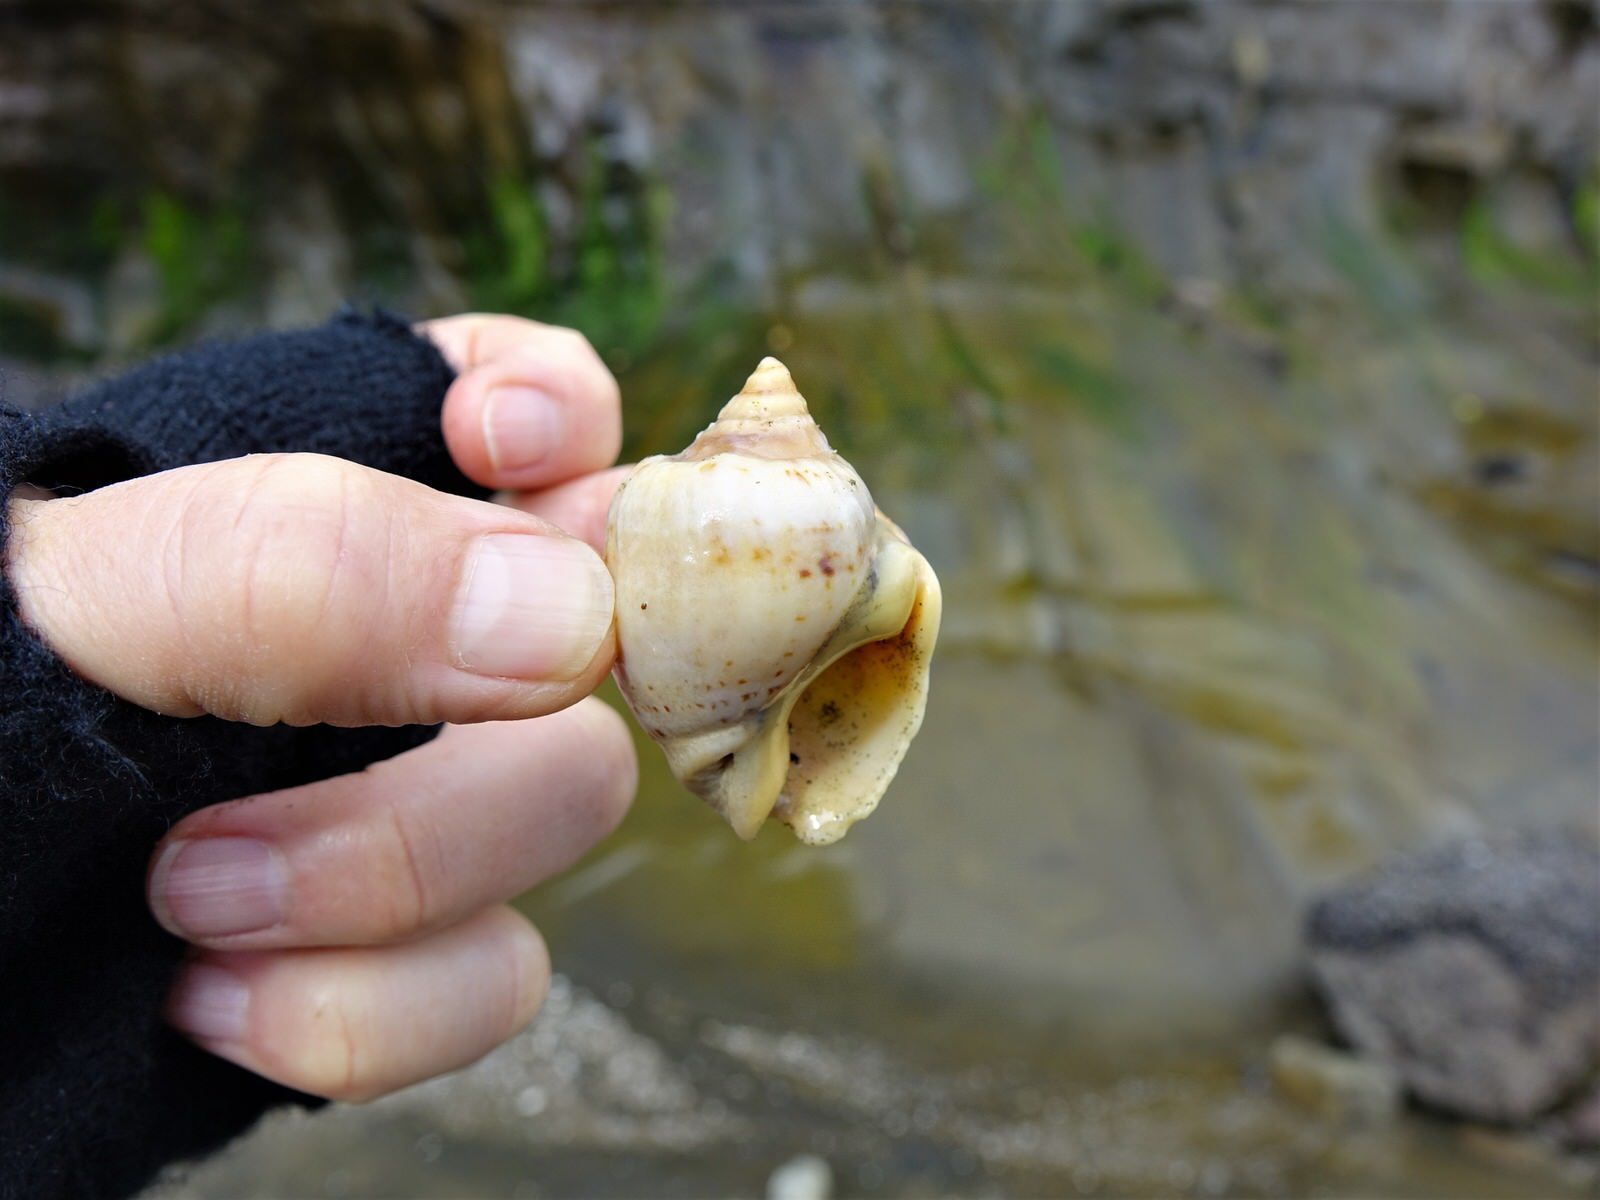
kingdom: Animalia
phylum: Mollusca
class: Gastropoda
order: Neogastropoda
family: Cominellidae
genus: Cominella
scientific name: Cominella adspersa
